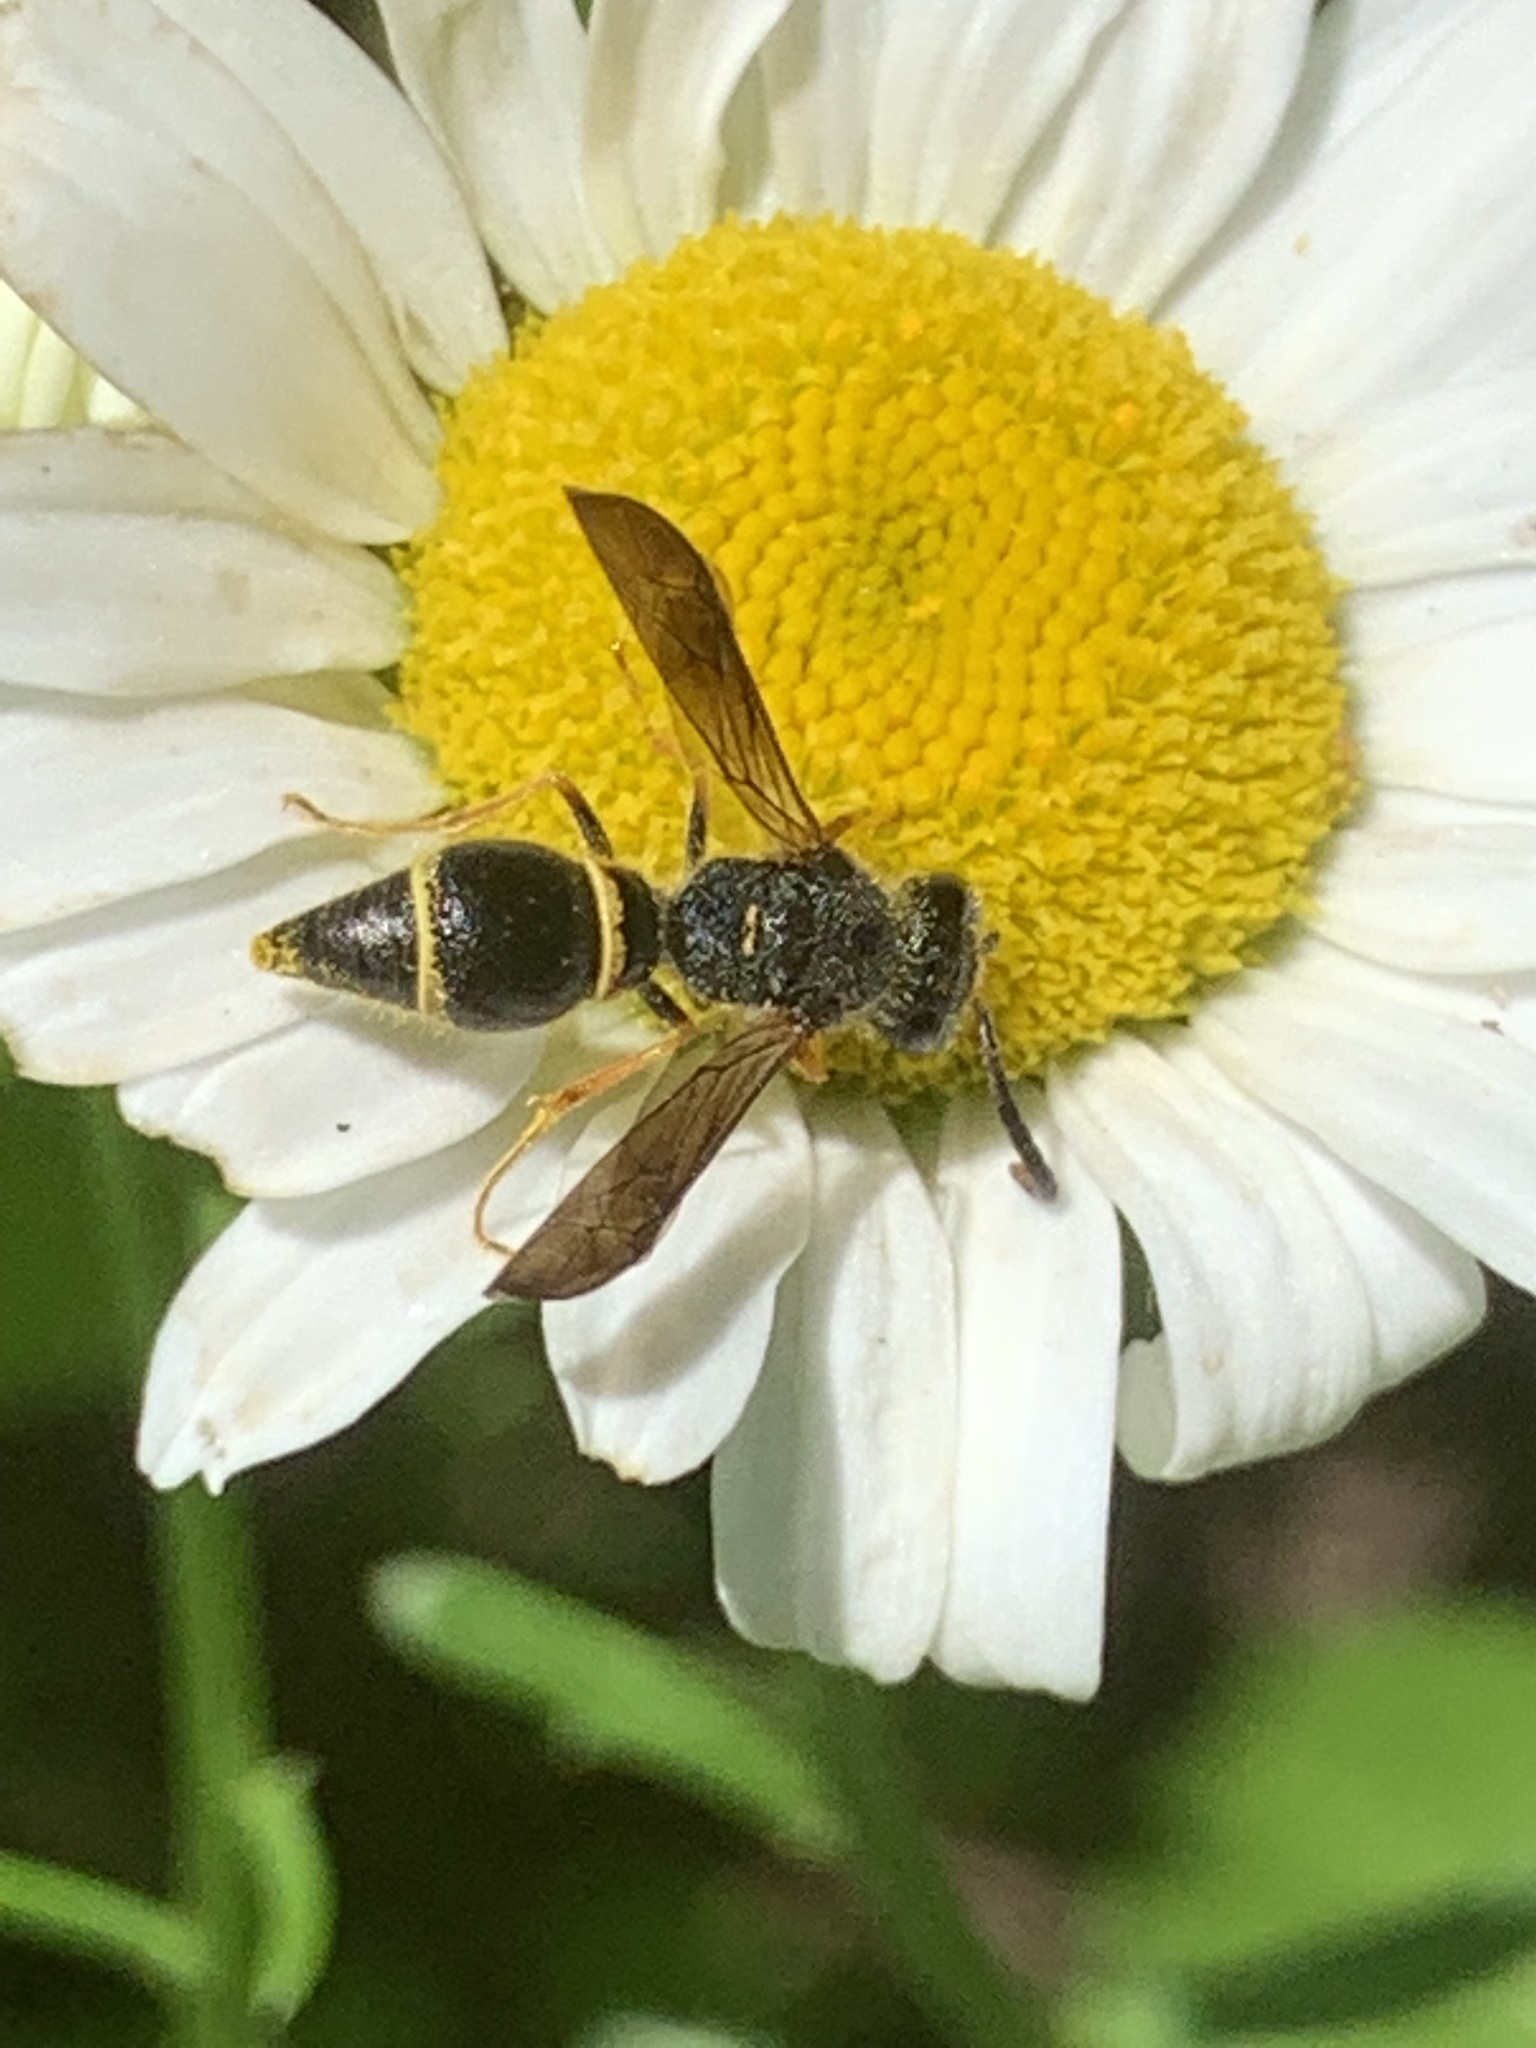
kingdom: Animalia
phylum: Arthropoda
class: Insecta
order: Hymenoptera
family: Vespidae
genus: Ancistrocerus
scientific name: Ancistrocerus campestris
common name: Smiling mason wasp
